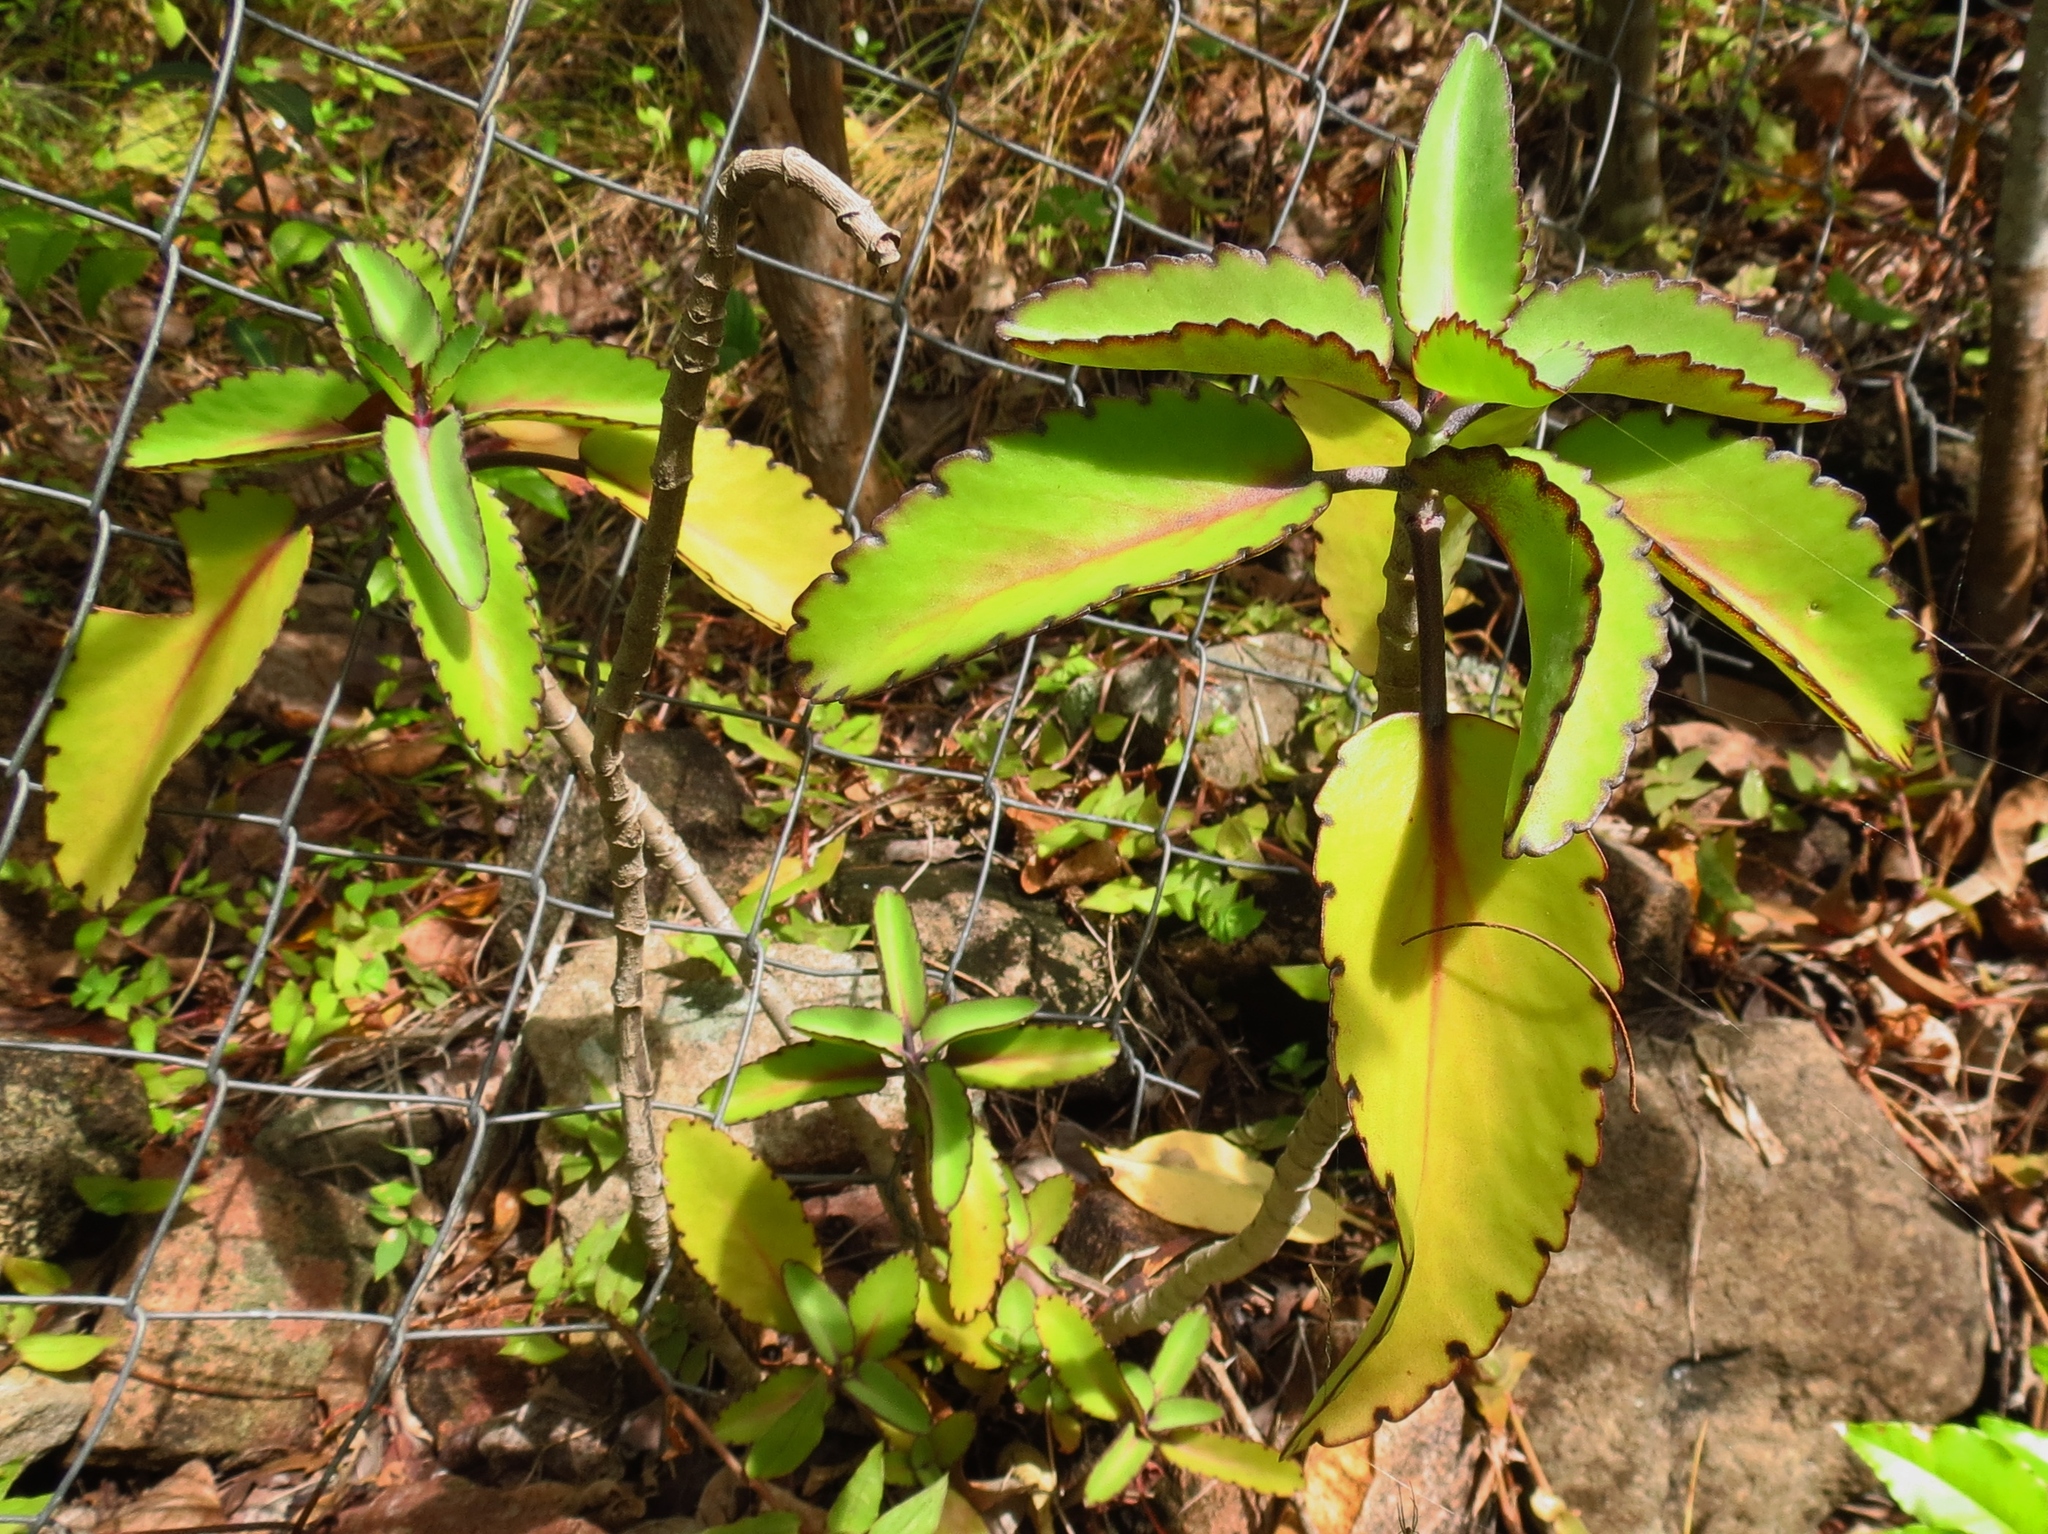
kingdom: Plantae
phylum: Tracheophyta
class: Magnoliopsida
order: Saxifragales
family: Crassulaceae
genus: Kalanchoe
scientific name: Kalanchoe pinnata
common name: Cathedral bells
